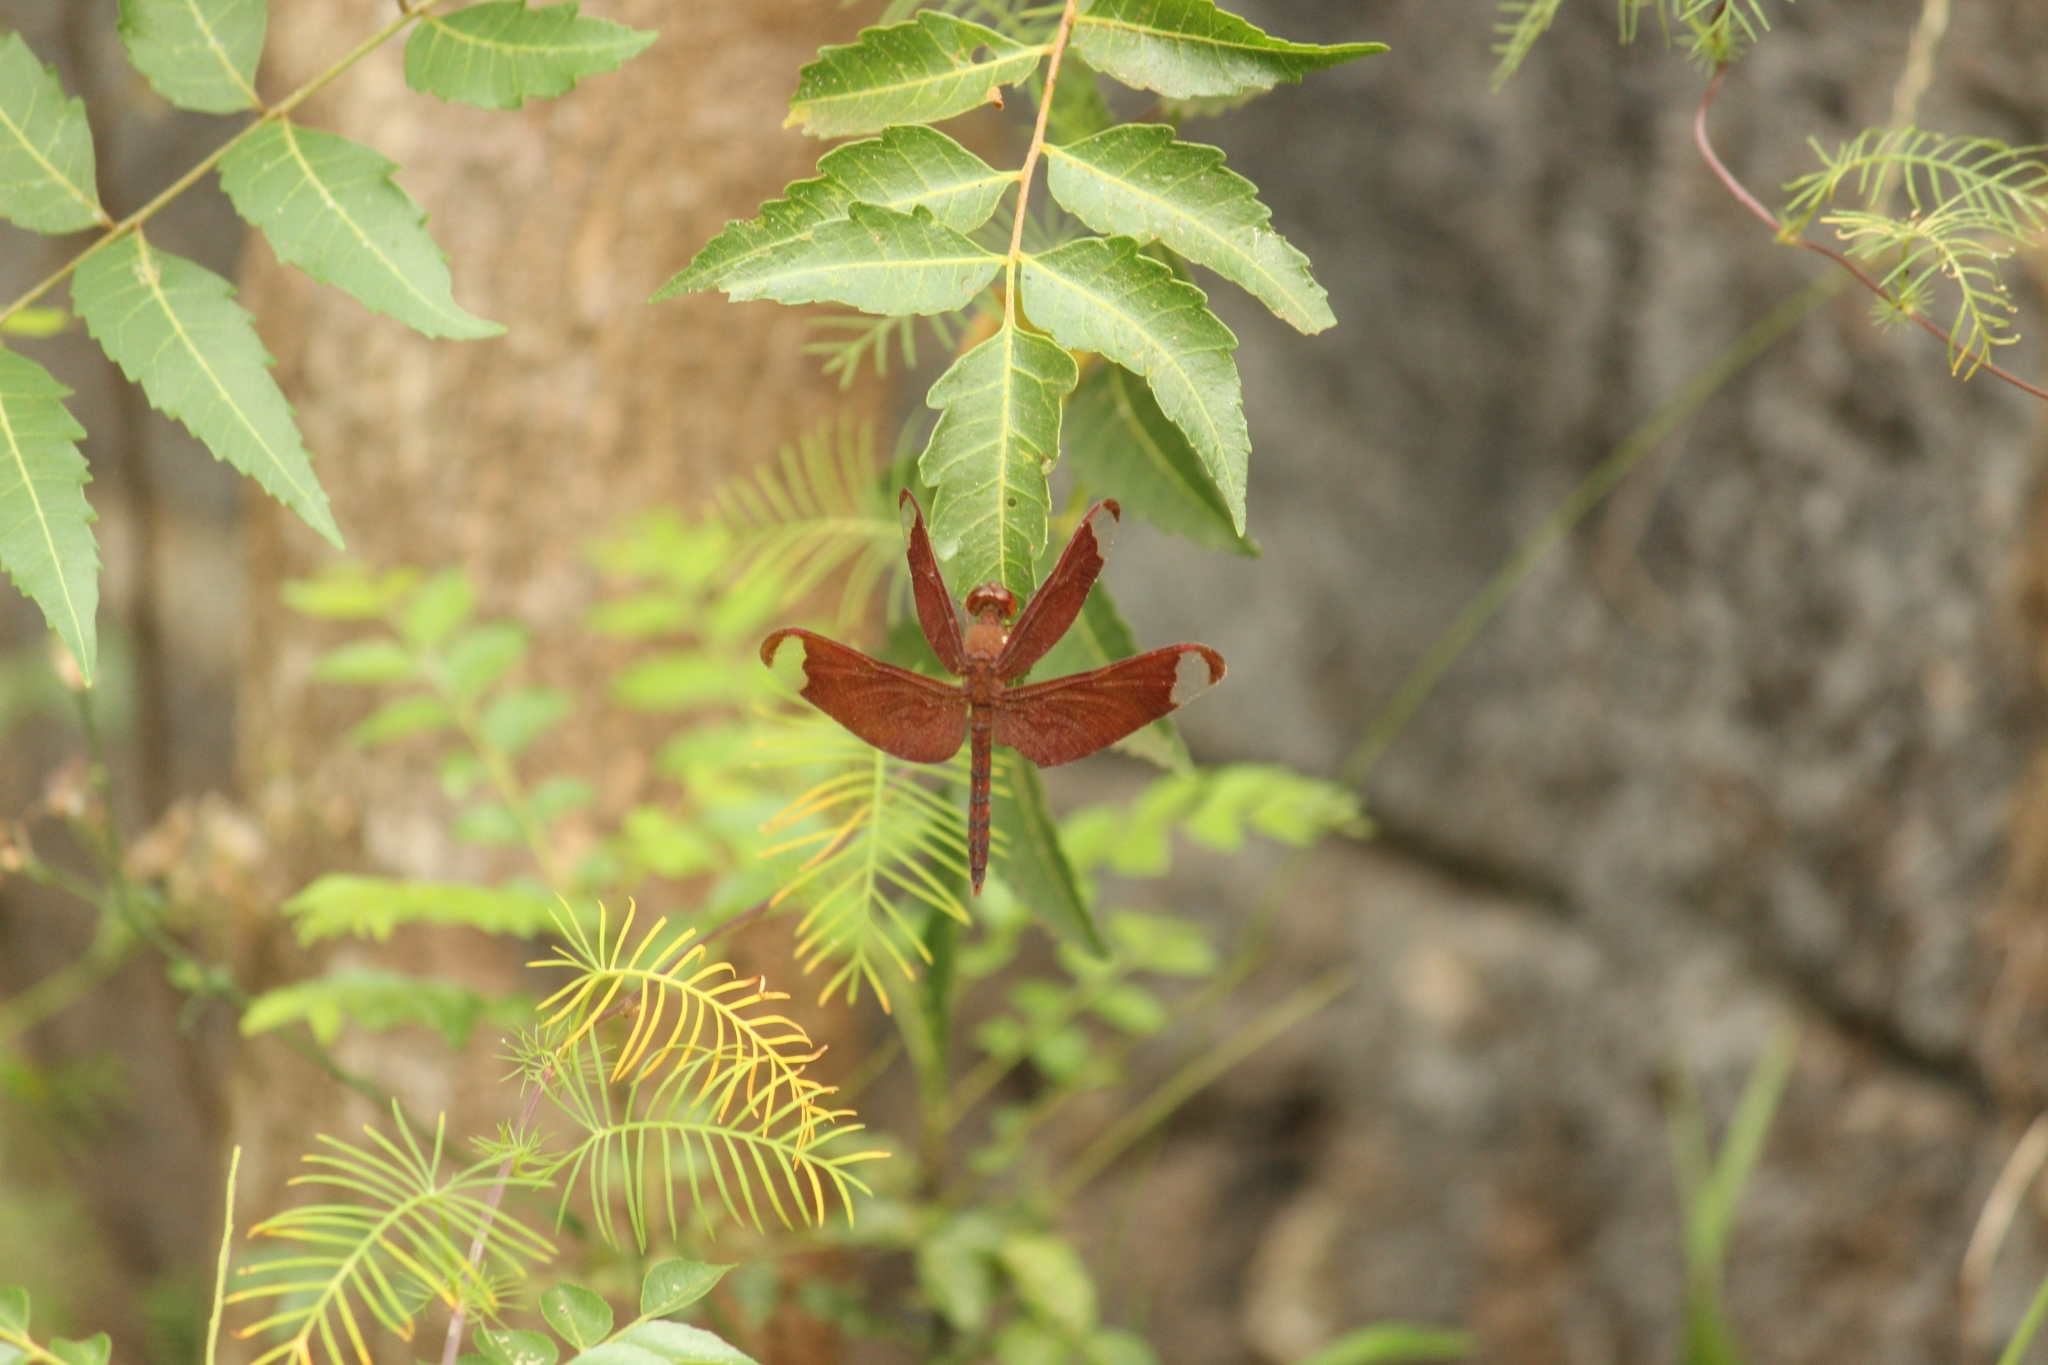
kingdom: Animalia
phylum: Arthropoda
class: Insecta
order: Odonata
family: Libellulidae
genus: Neurothemis
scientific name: Neurothemis fulvia
